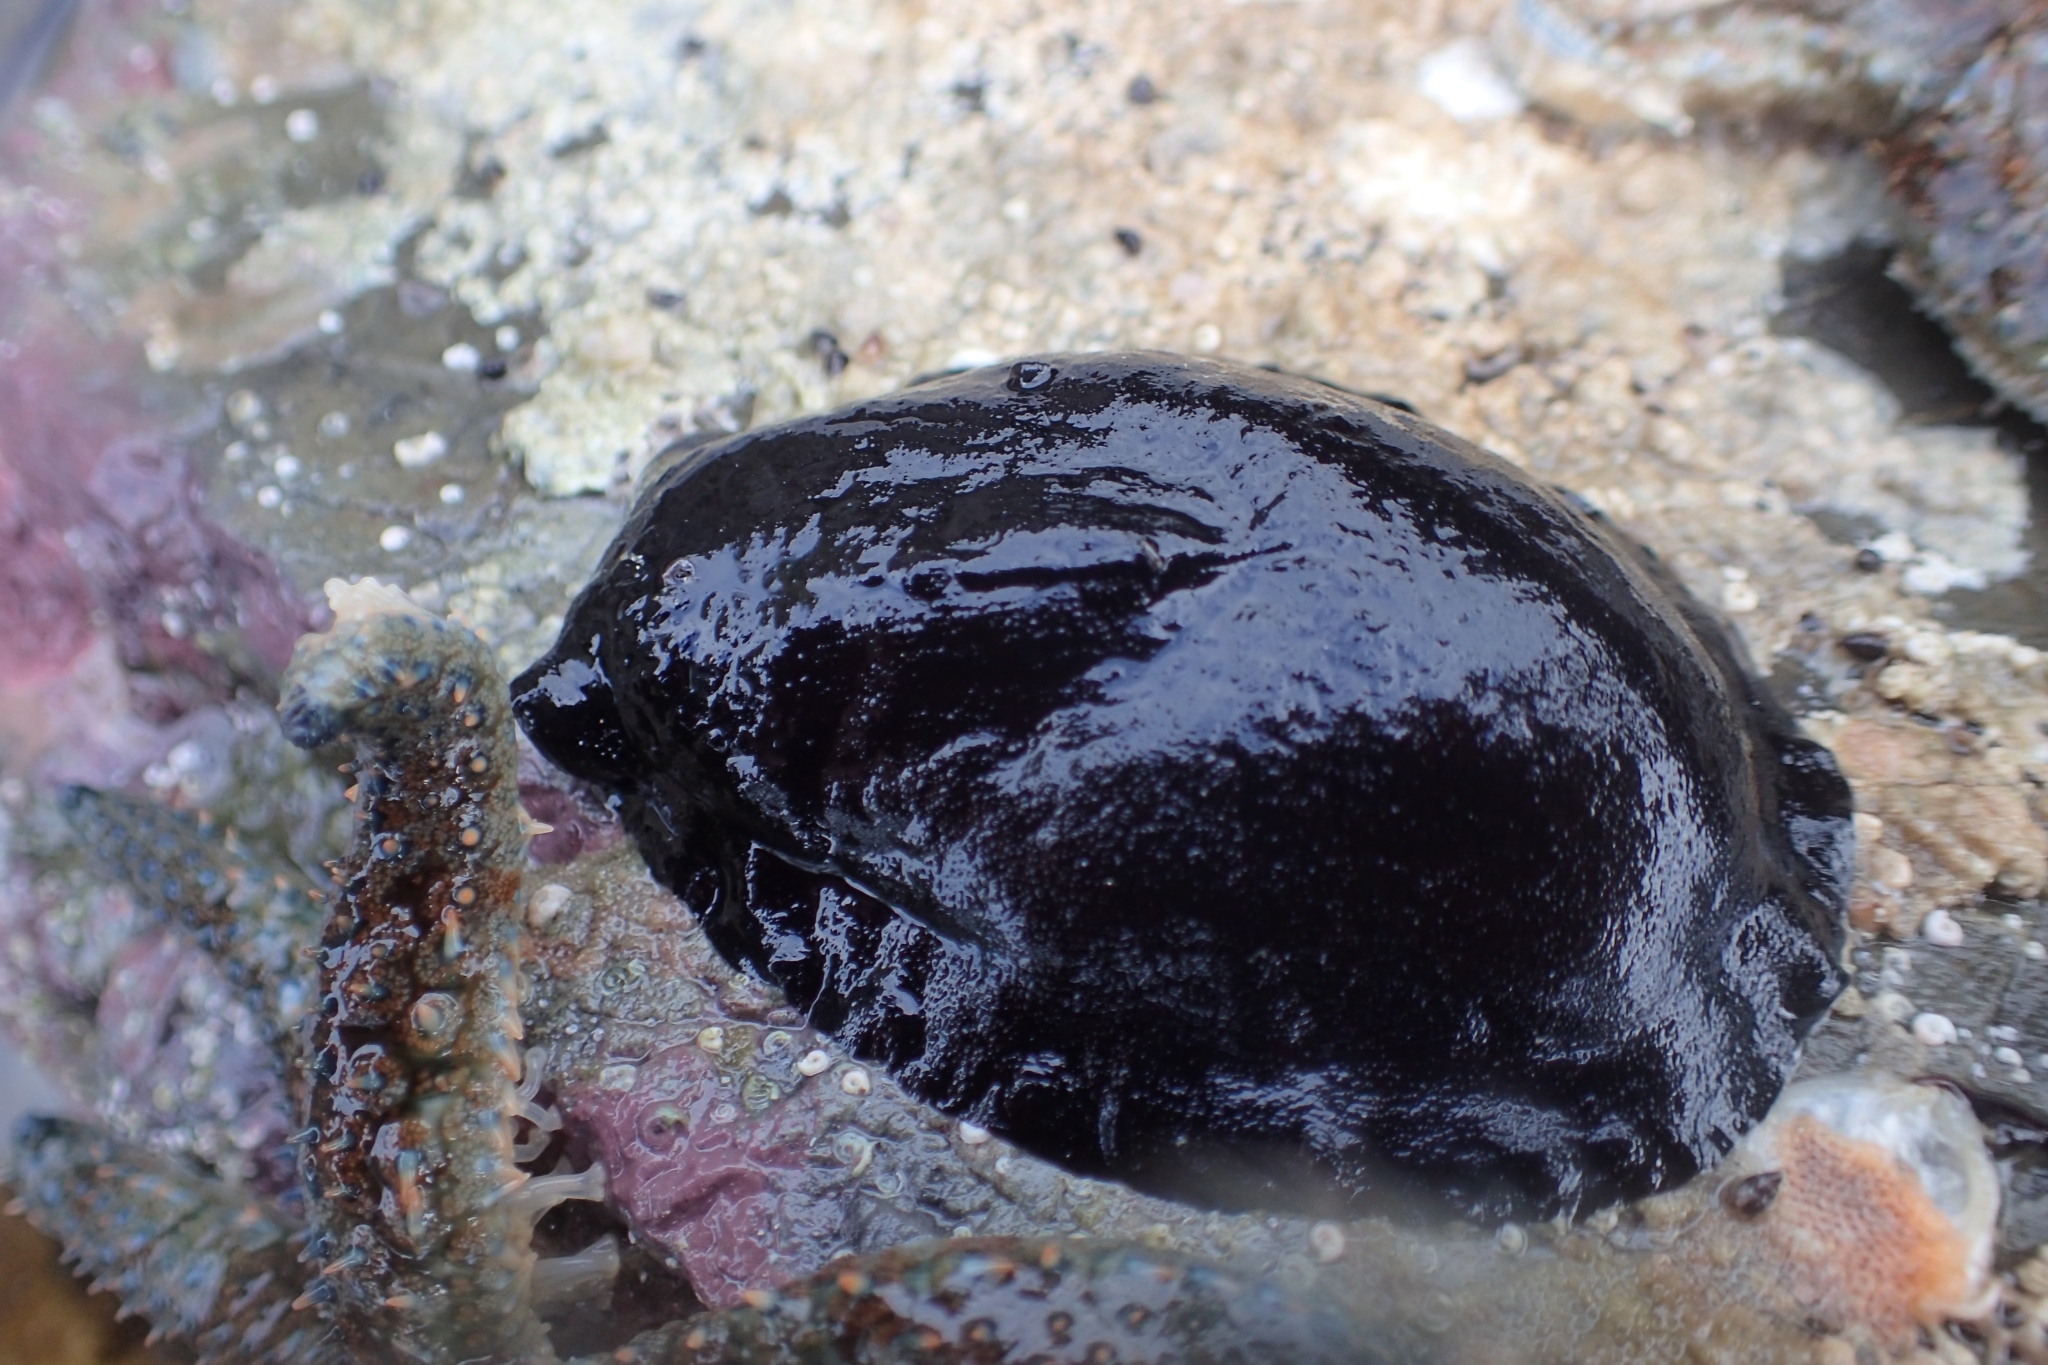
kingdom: Animalia
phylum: Mollusca
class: Gastropoda
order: Lepetellida
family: Fissurellidae
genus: Scutus
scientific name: Scutus breviculus
